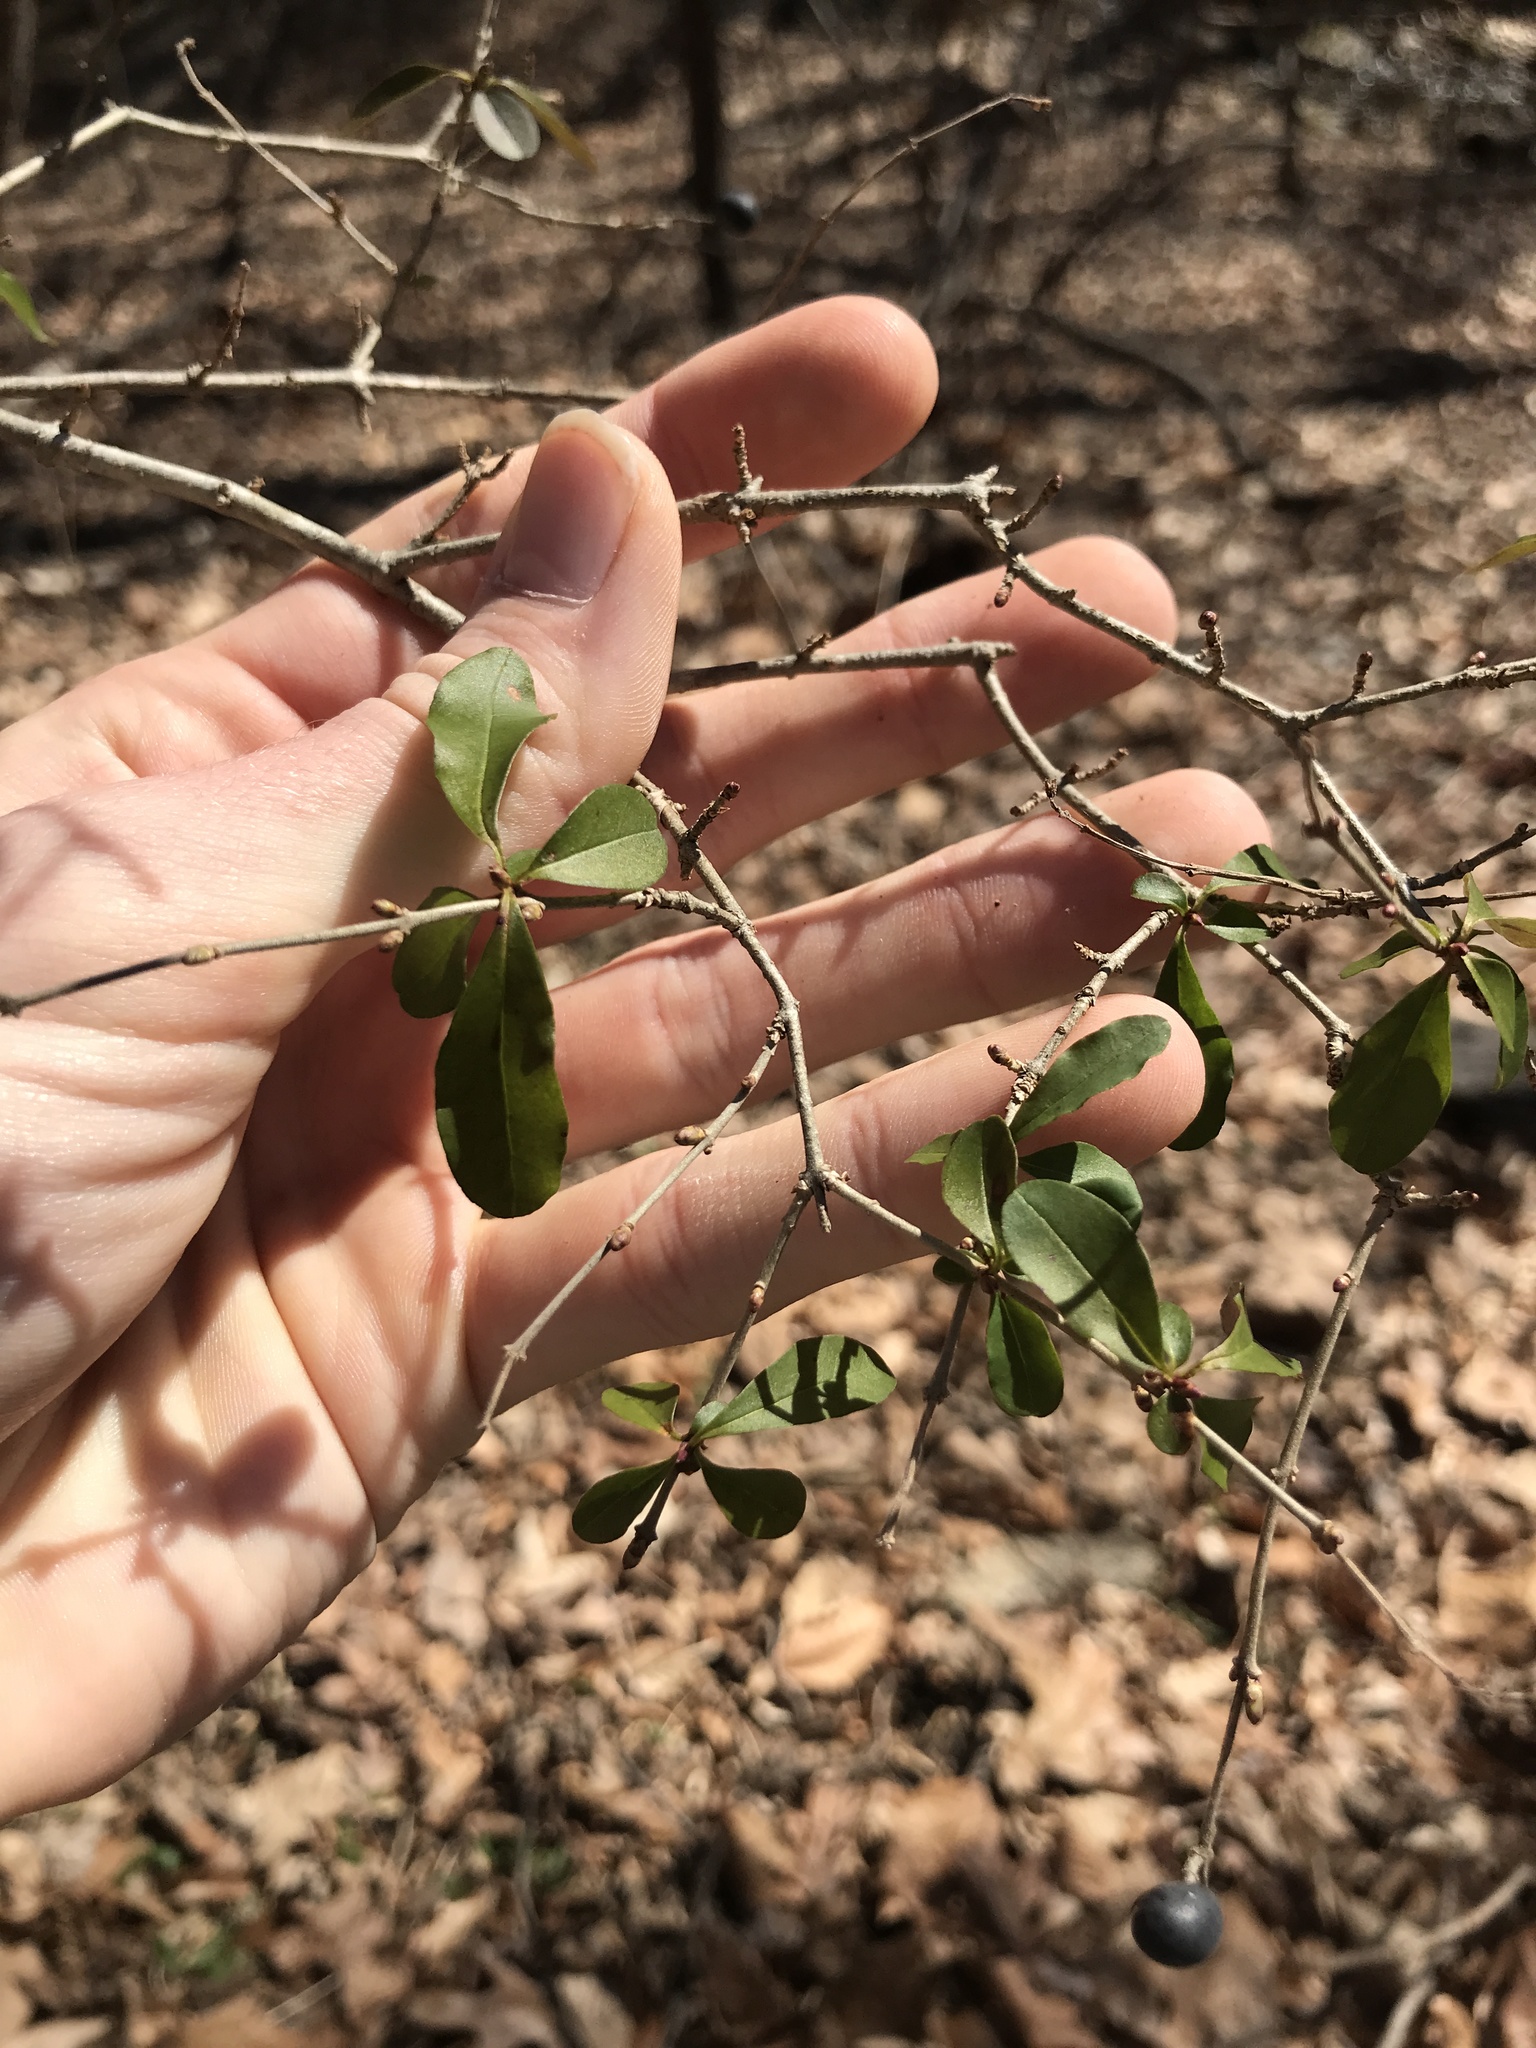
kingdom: Plantae
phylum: Tracheophyta
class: Magnoliopsida
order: Lamiales
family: Oleaceae
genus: Ligustrum
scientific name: Ligustrum obtusifolium
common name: Border privet
